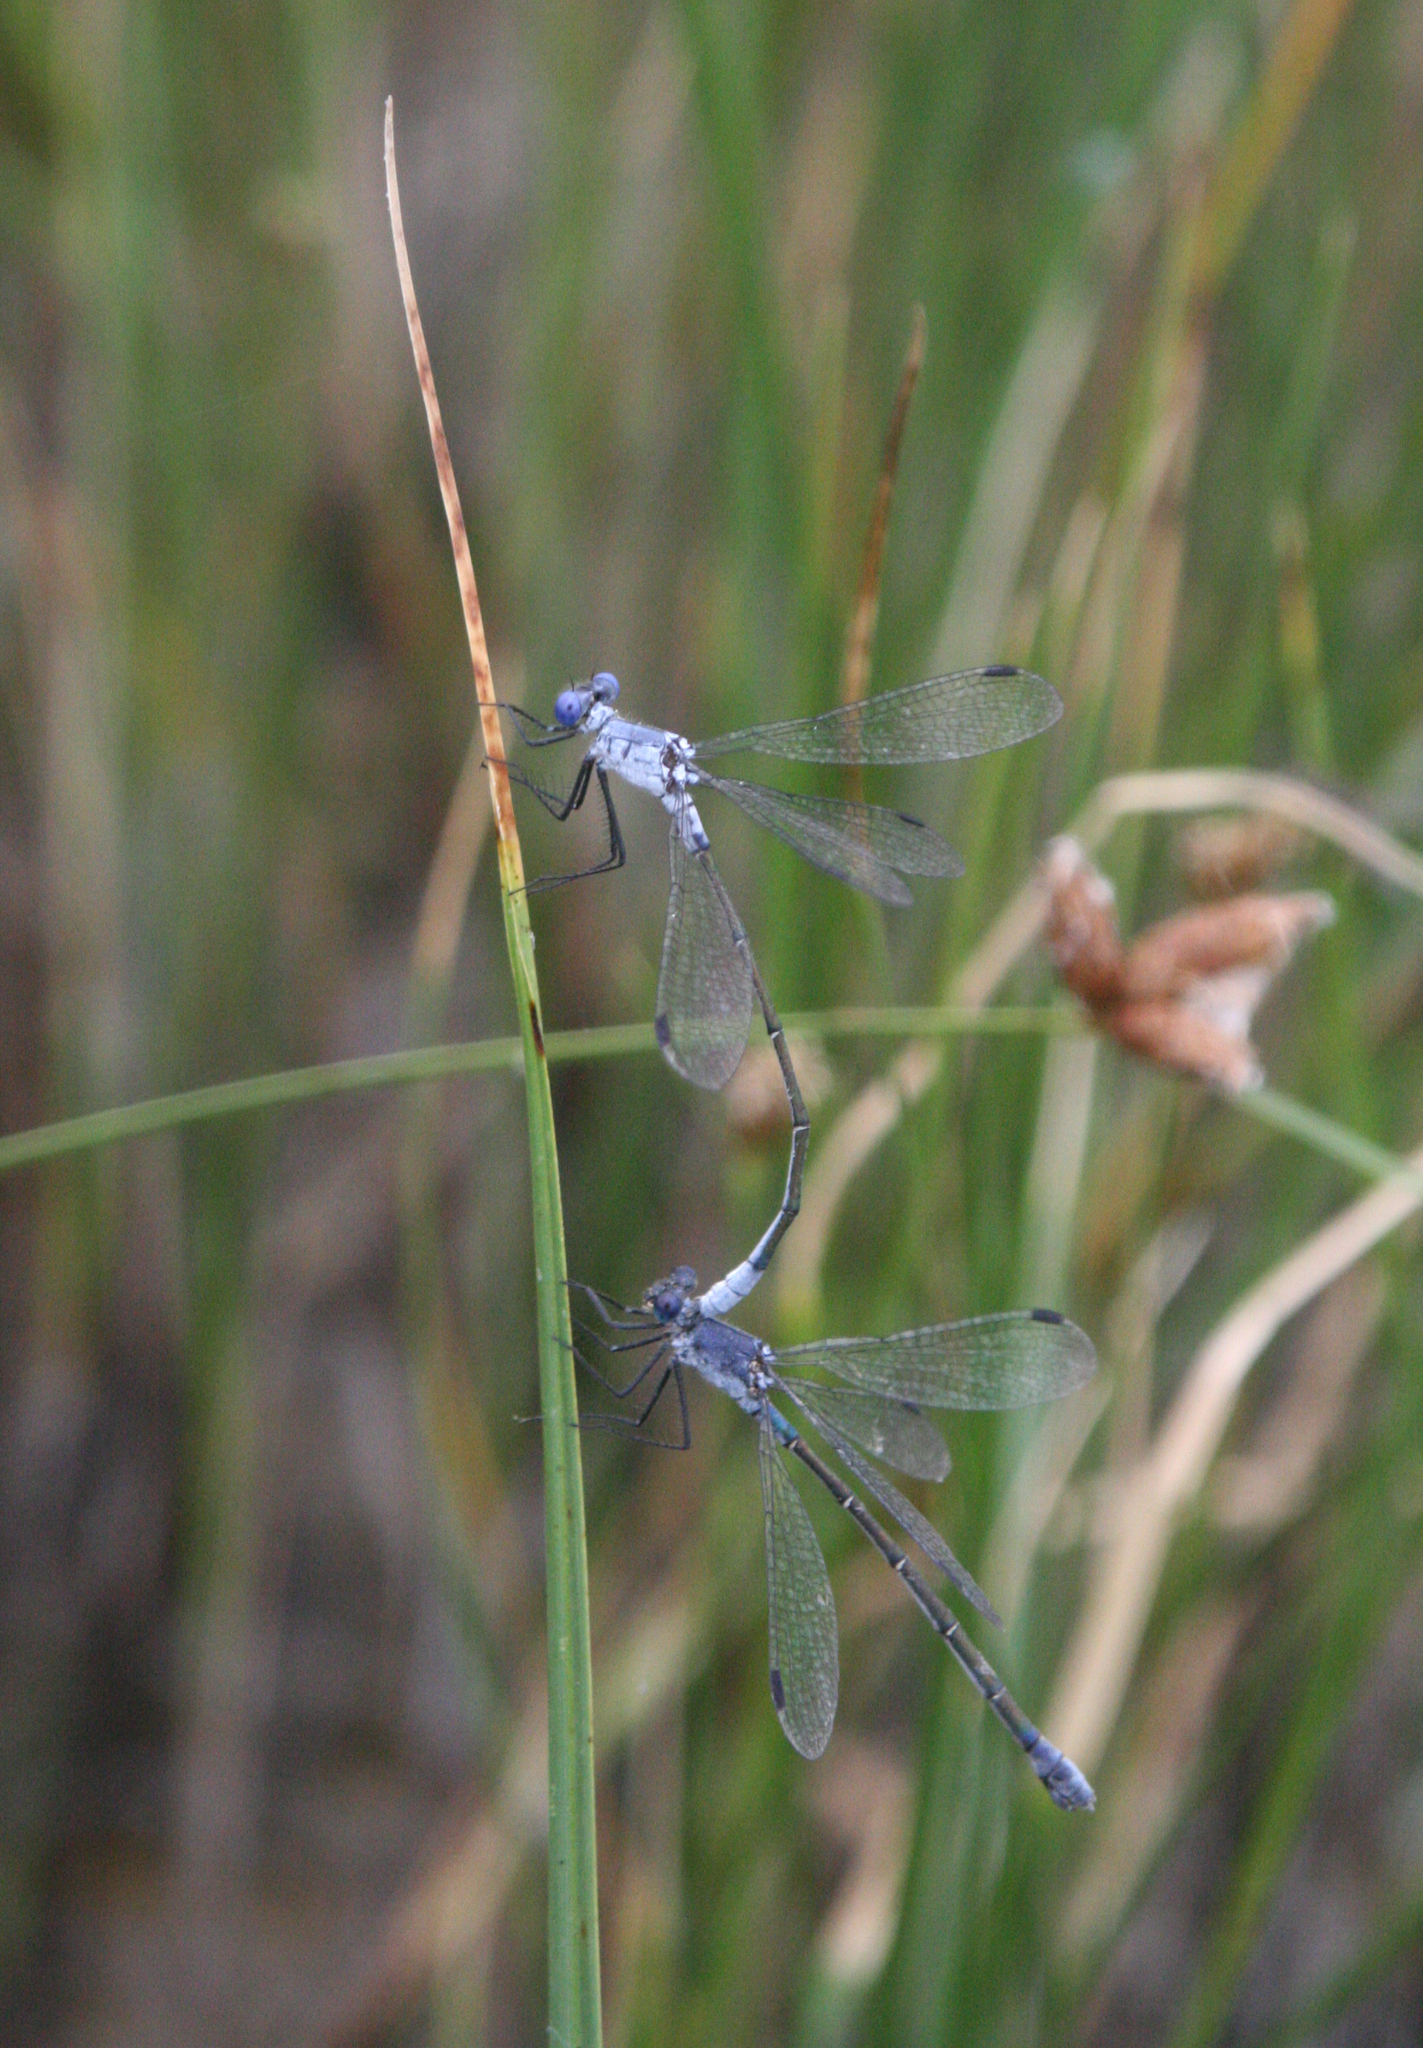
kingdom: Animalia
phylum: Arthropoda
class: Insecta
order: Odonata
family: Lestidae
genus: Lestes
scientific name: Lestes macrostigma
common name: Dark spreadwing
